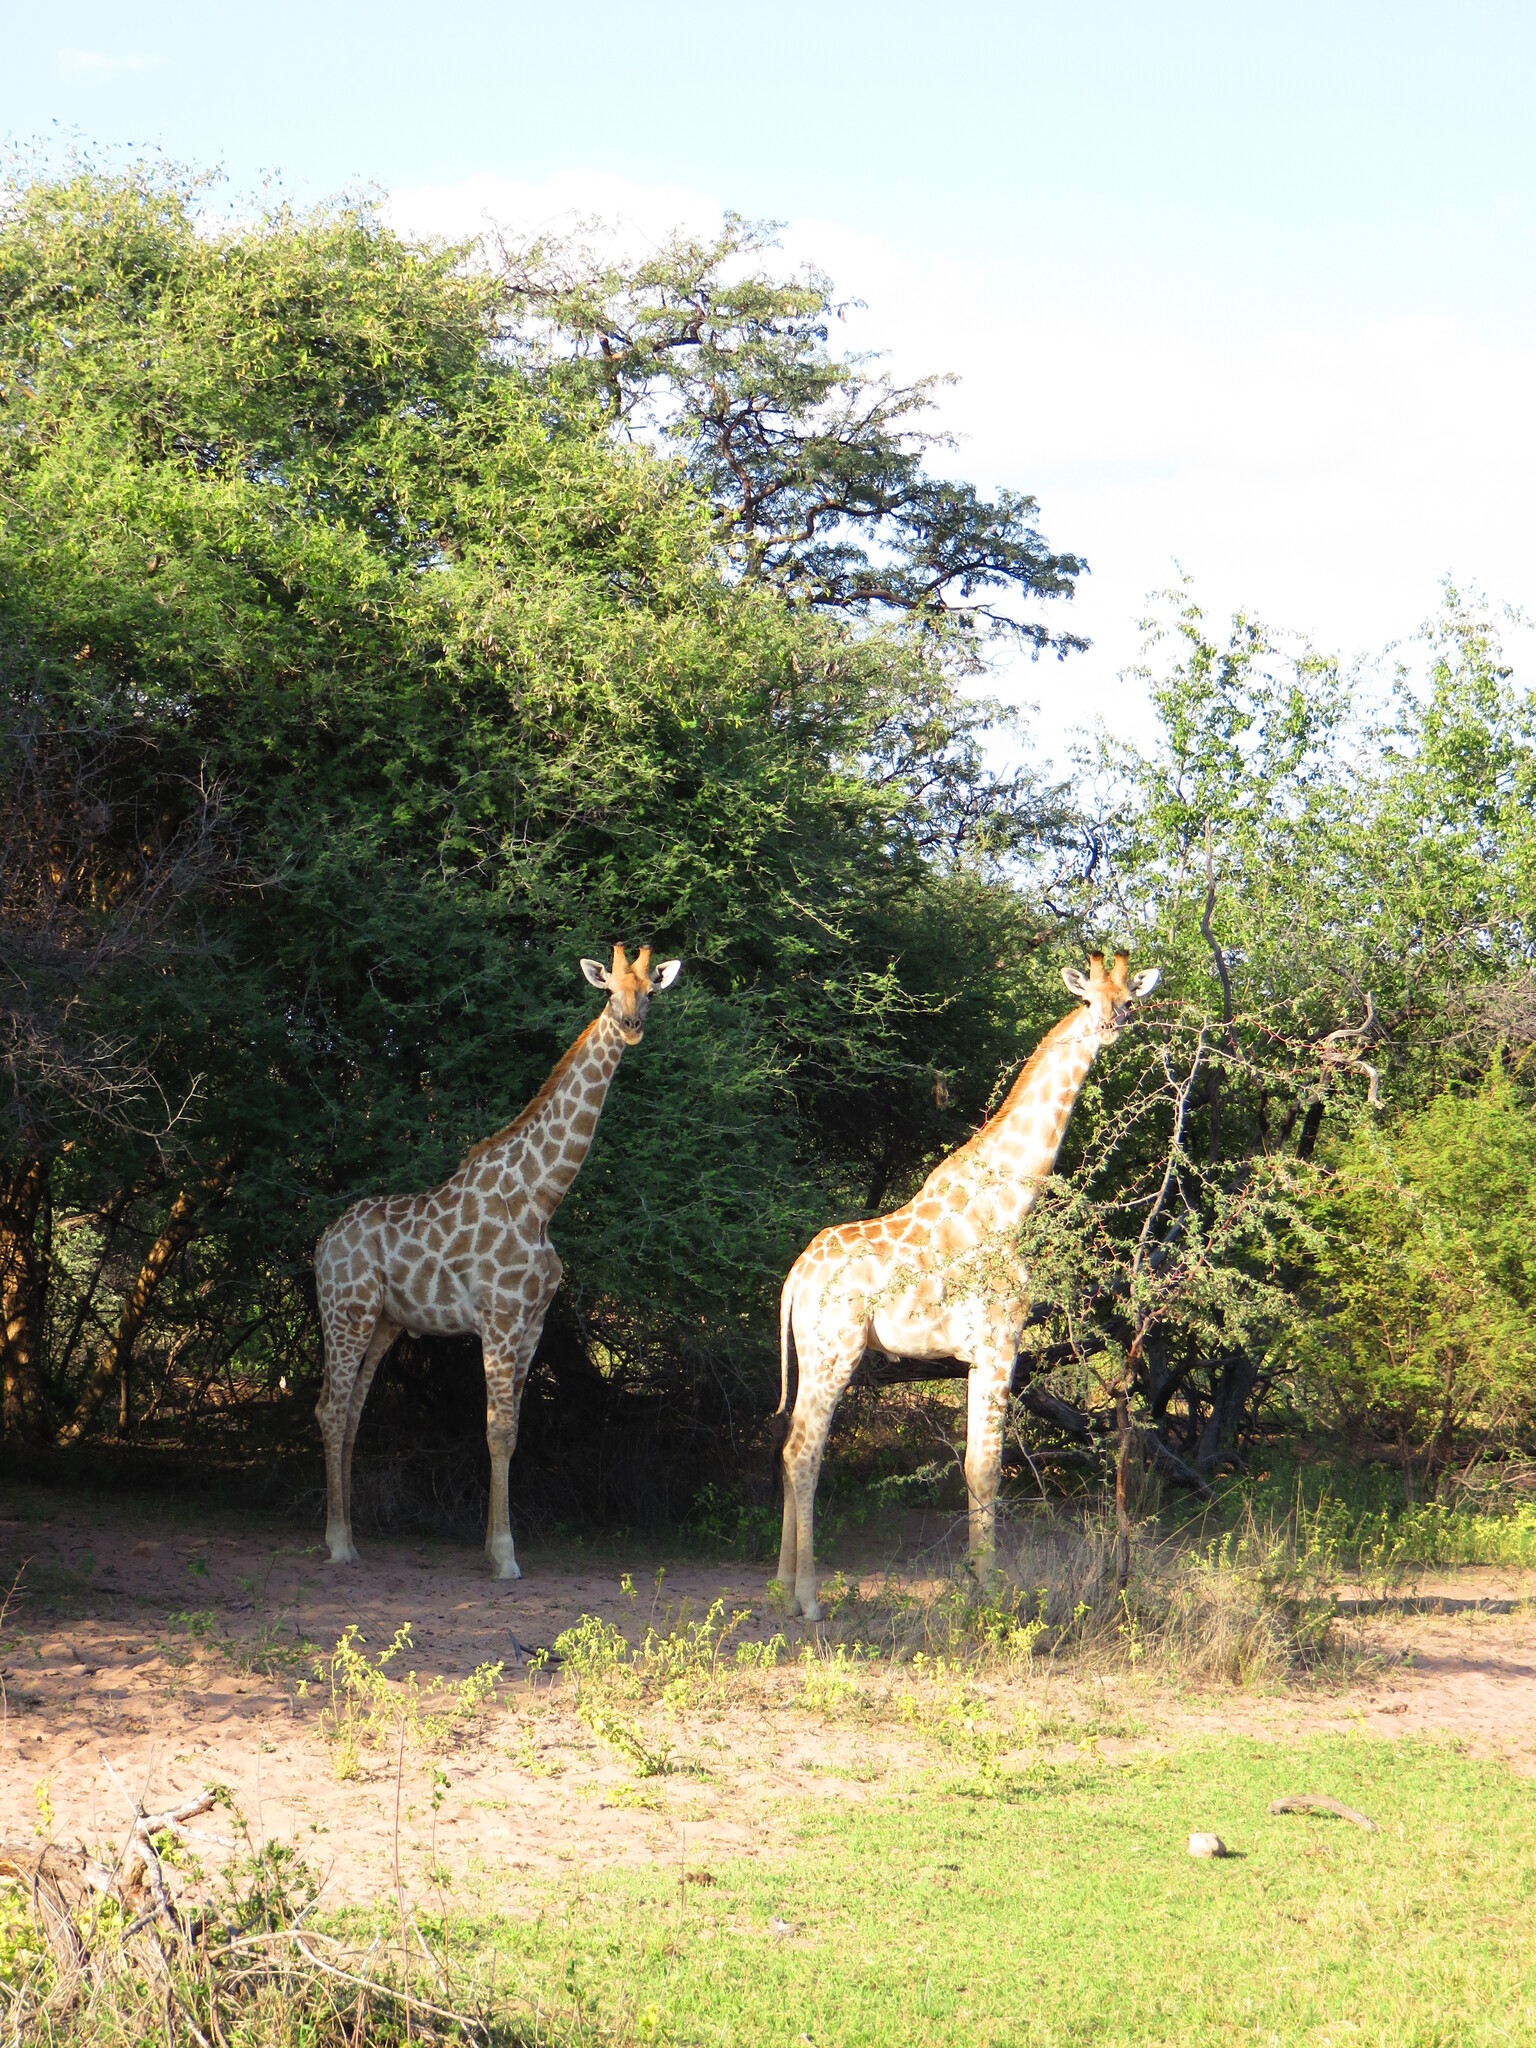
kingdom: Animalia
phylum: Chordata
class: Mammalia
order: Artiodactyla
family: Giraffidae
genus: Giraffa
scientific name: Giraffa giraffa
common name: Southern giraffe
